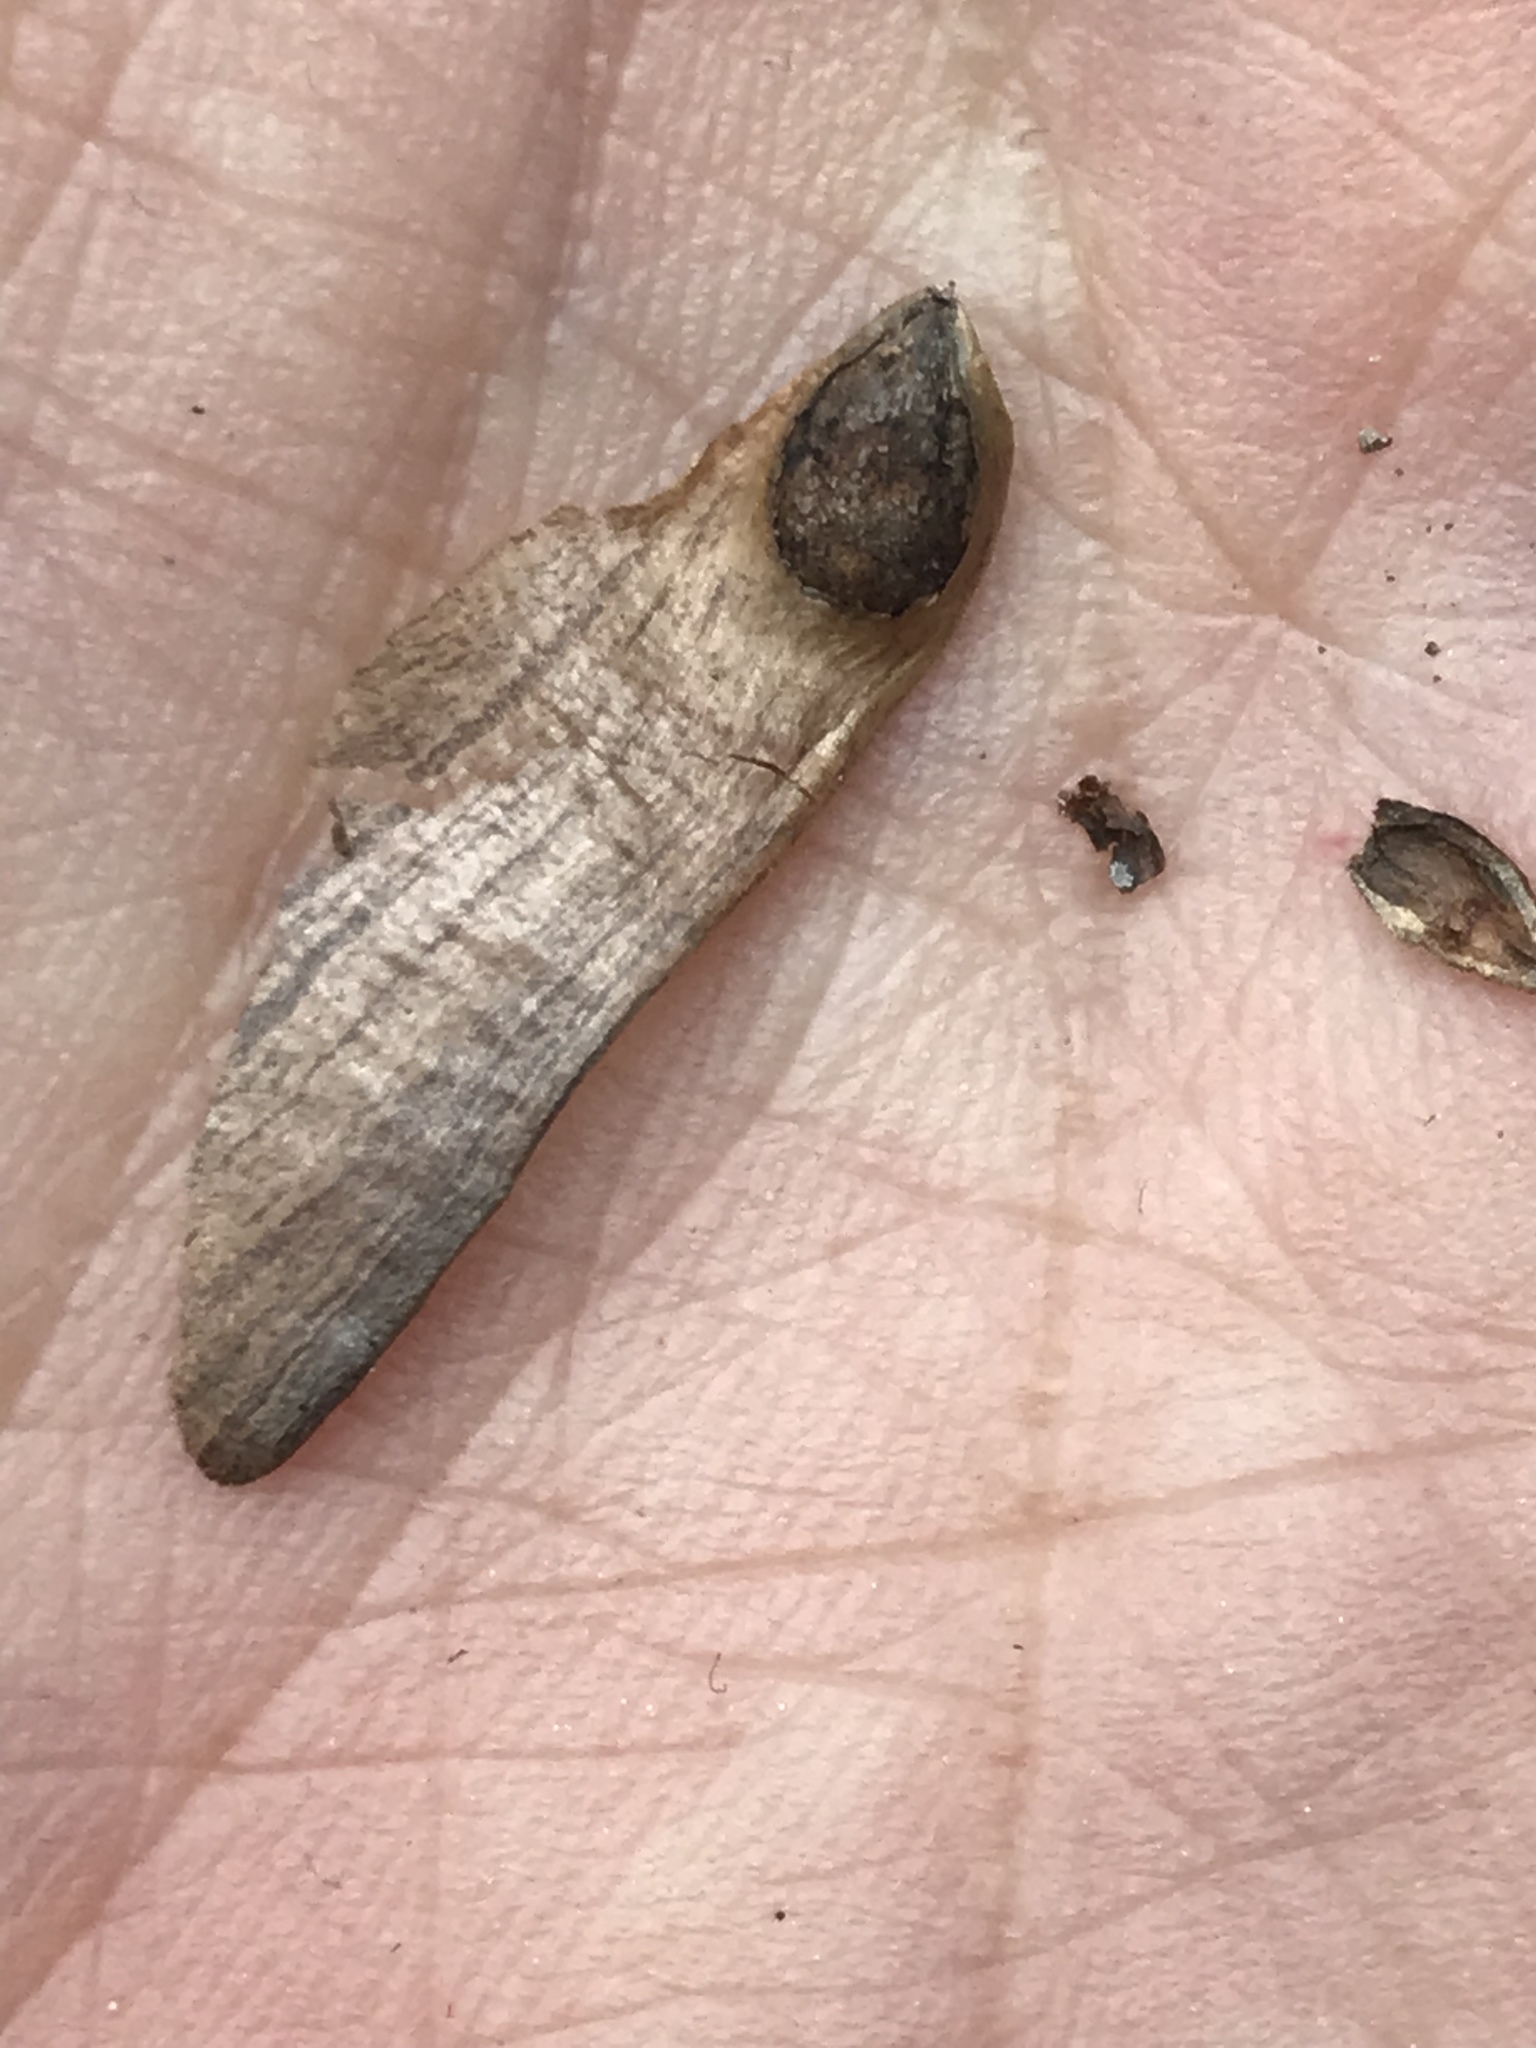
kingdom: Plantae
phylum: Tracheophyta
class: Pinopsida
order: Pinales
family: Pinaceae
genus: Pinus
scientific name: Pinus pseudostrobus
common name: False weymouth pine
